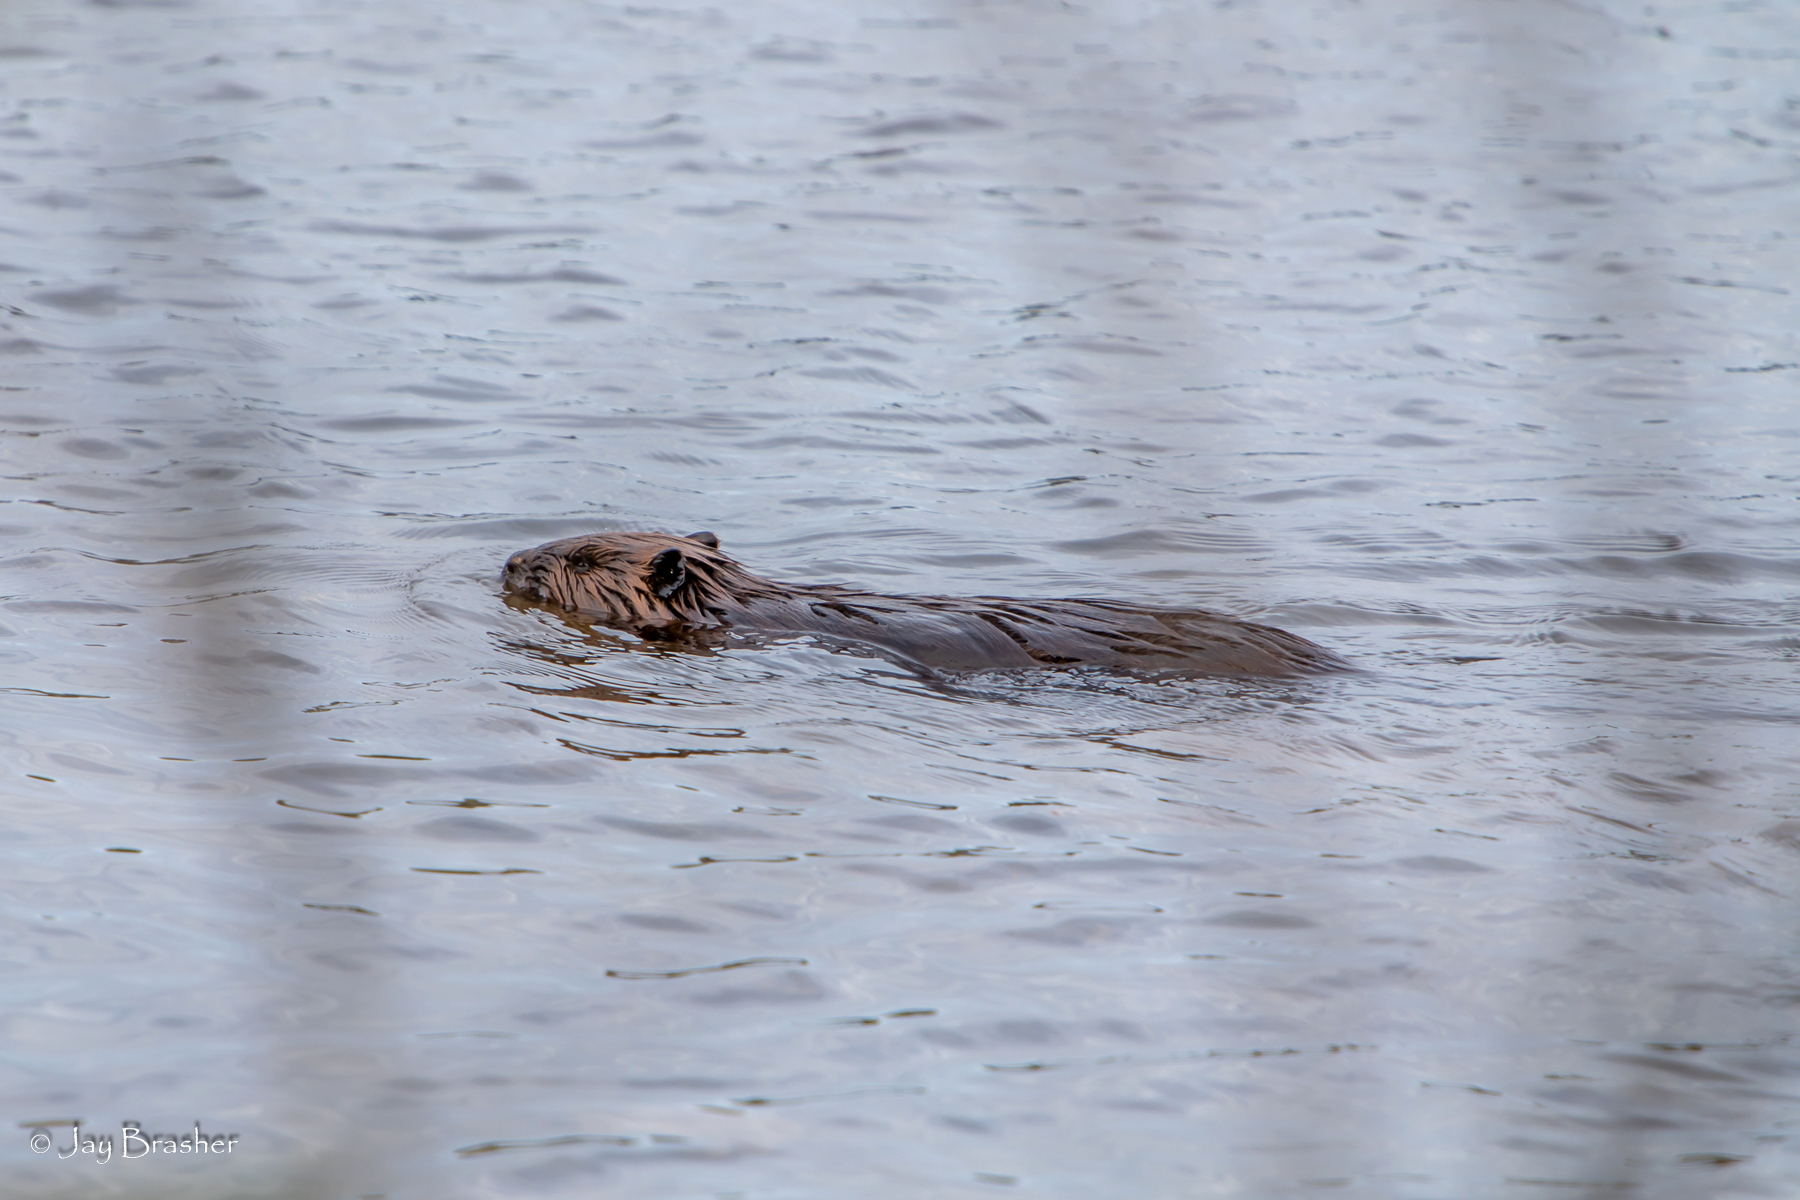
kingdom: Animalia
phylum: Chordata
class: Mammalia
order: Rodentia
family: Castoridae
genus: Castor
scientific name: Castor canadensis
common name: American beaver
